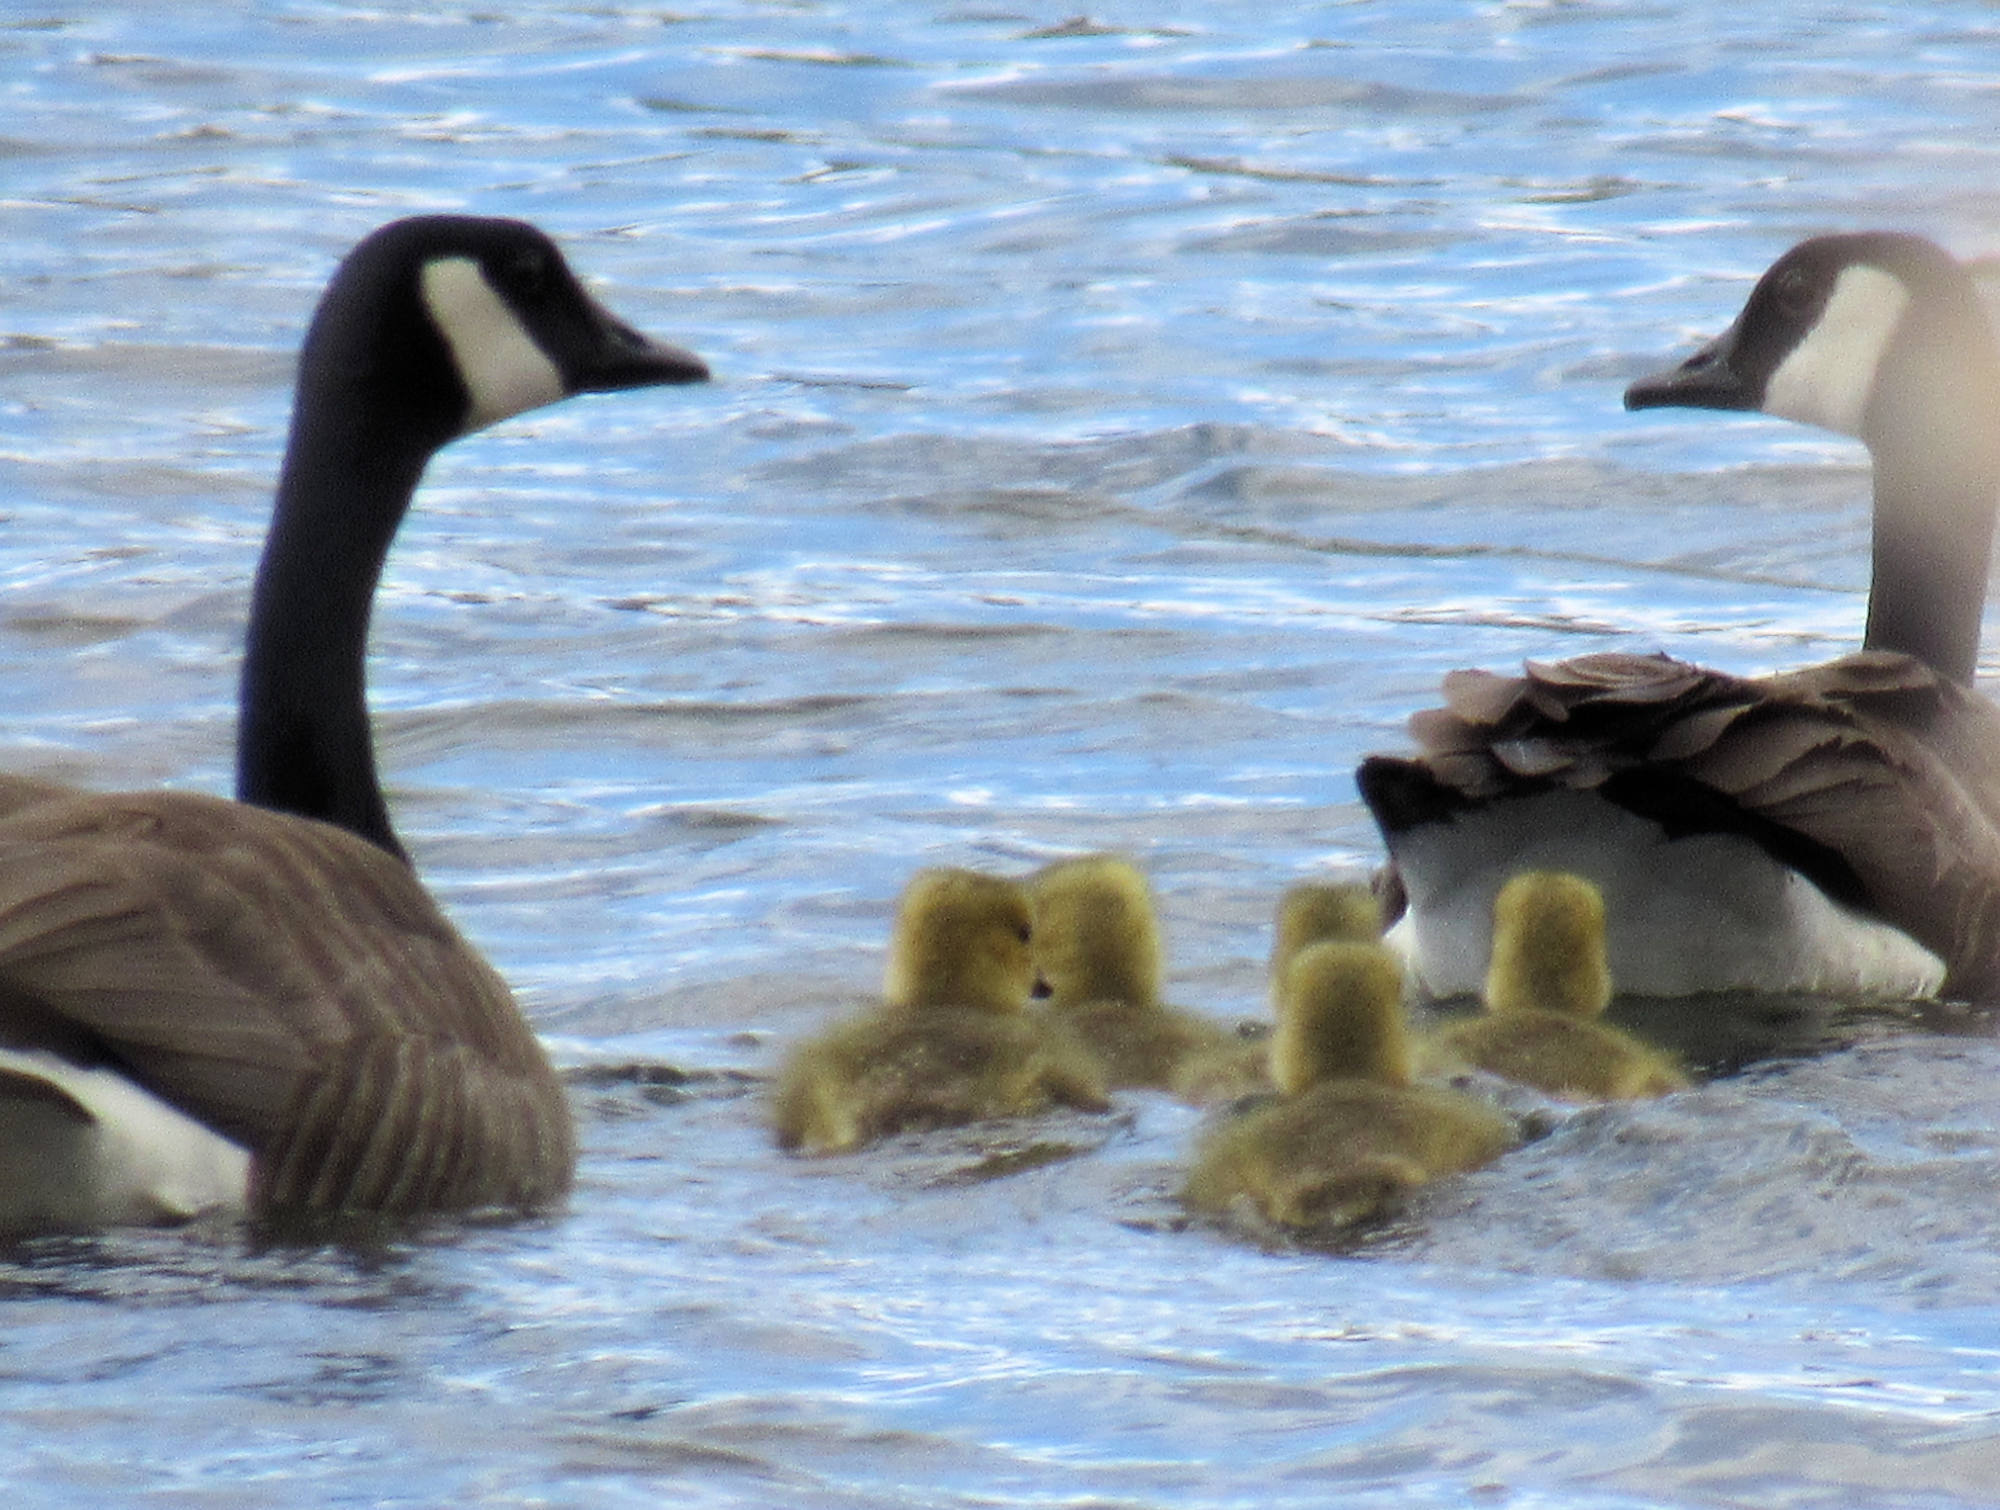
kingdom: Animalia
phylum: Chordata
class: Aves
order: Anseriformes
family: Anatidae
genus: Branta
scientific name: Branta canadensis
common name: Canada goose
